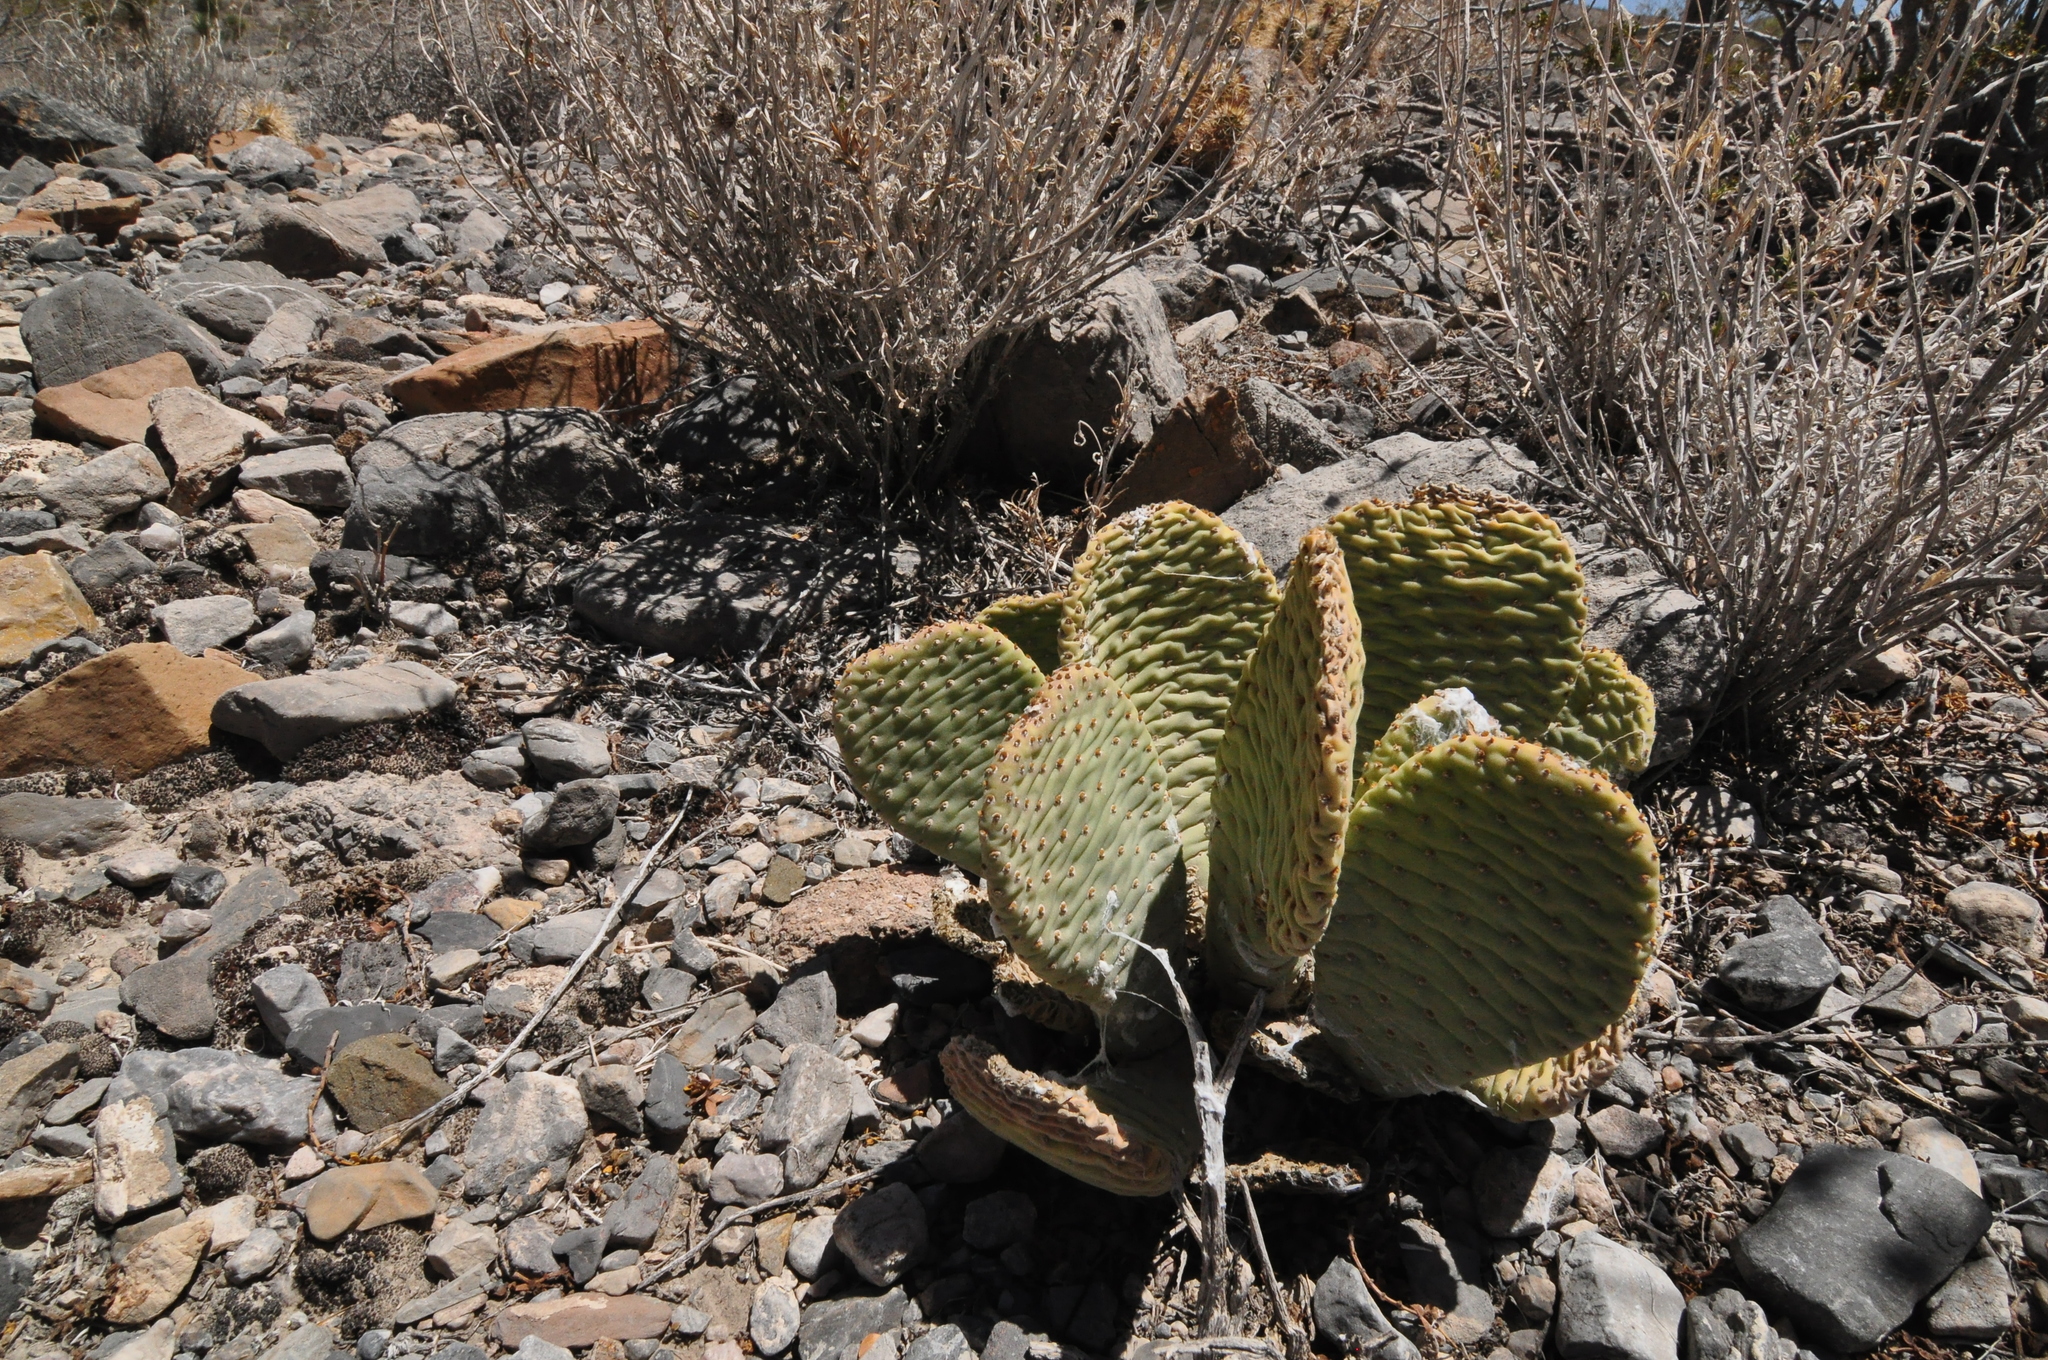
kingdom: Plantae
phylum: Tracheophyta
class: Magnoliopsida
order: Caryophyllales
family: Cactaceae
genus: Opuntia
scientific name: Opuntia basilaris
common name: Beavertail prickly-pear
